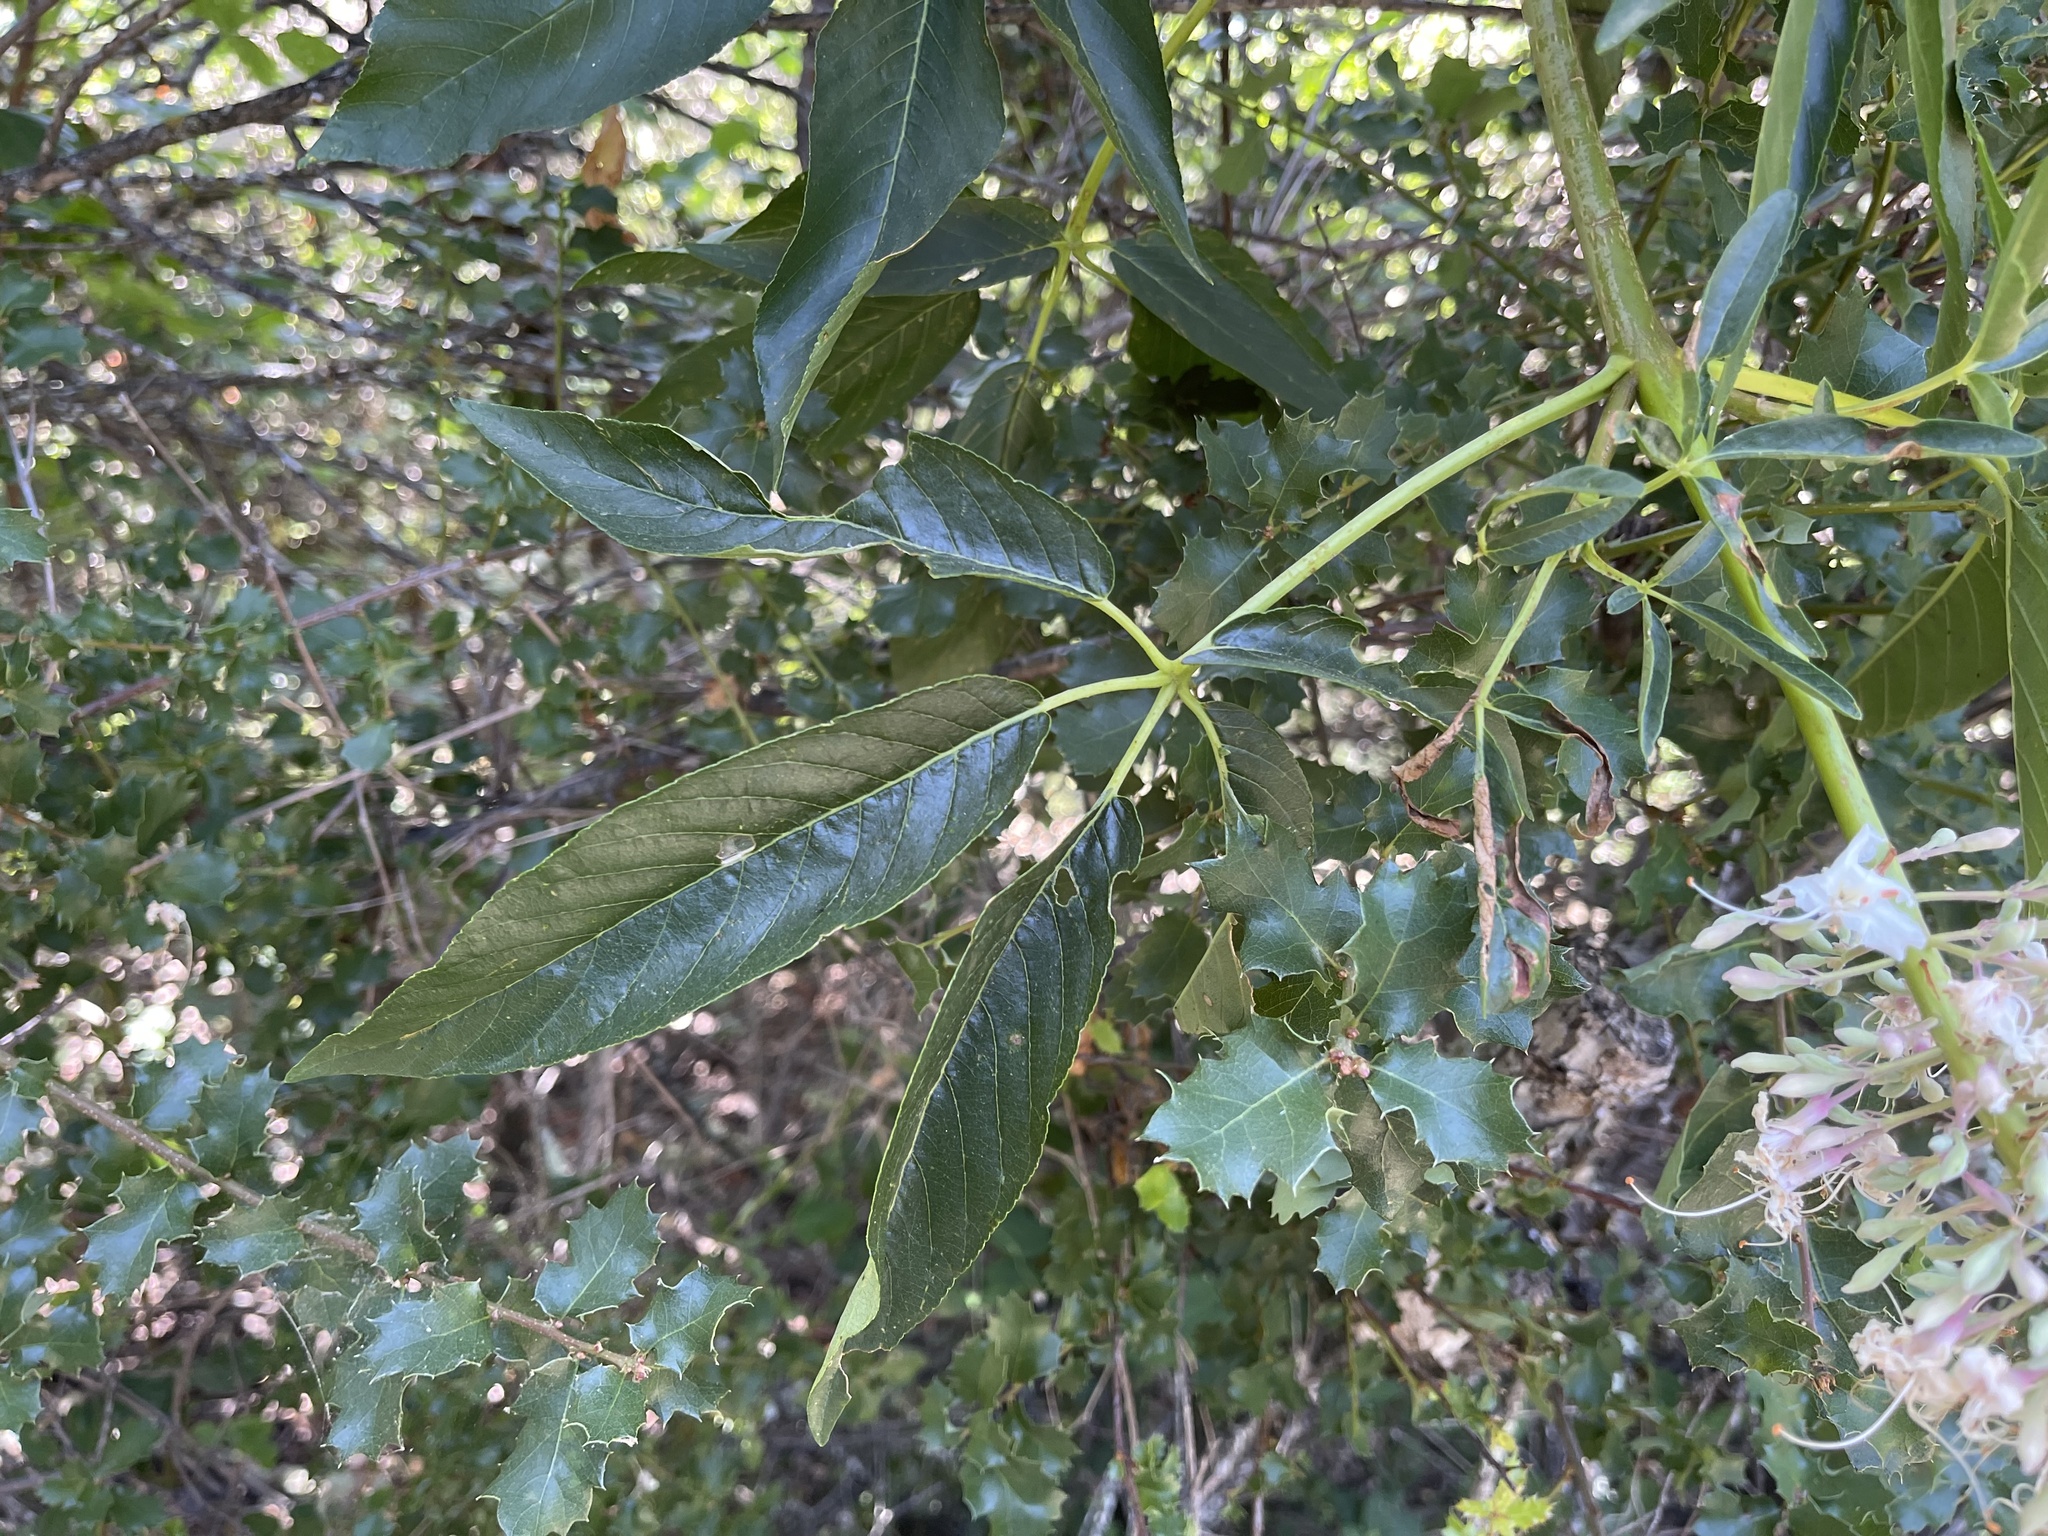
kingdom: Plantae
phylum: Tracheophyta
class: Magnoliopsida
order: Sapindales
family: Sapindaceae
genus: Aesculus
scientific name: Aesculus californica
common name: California buckeye
